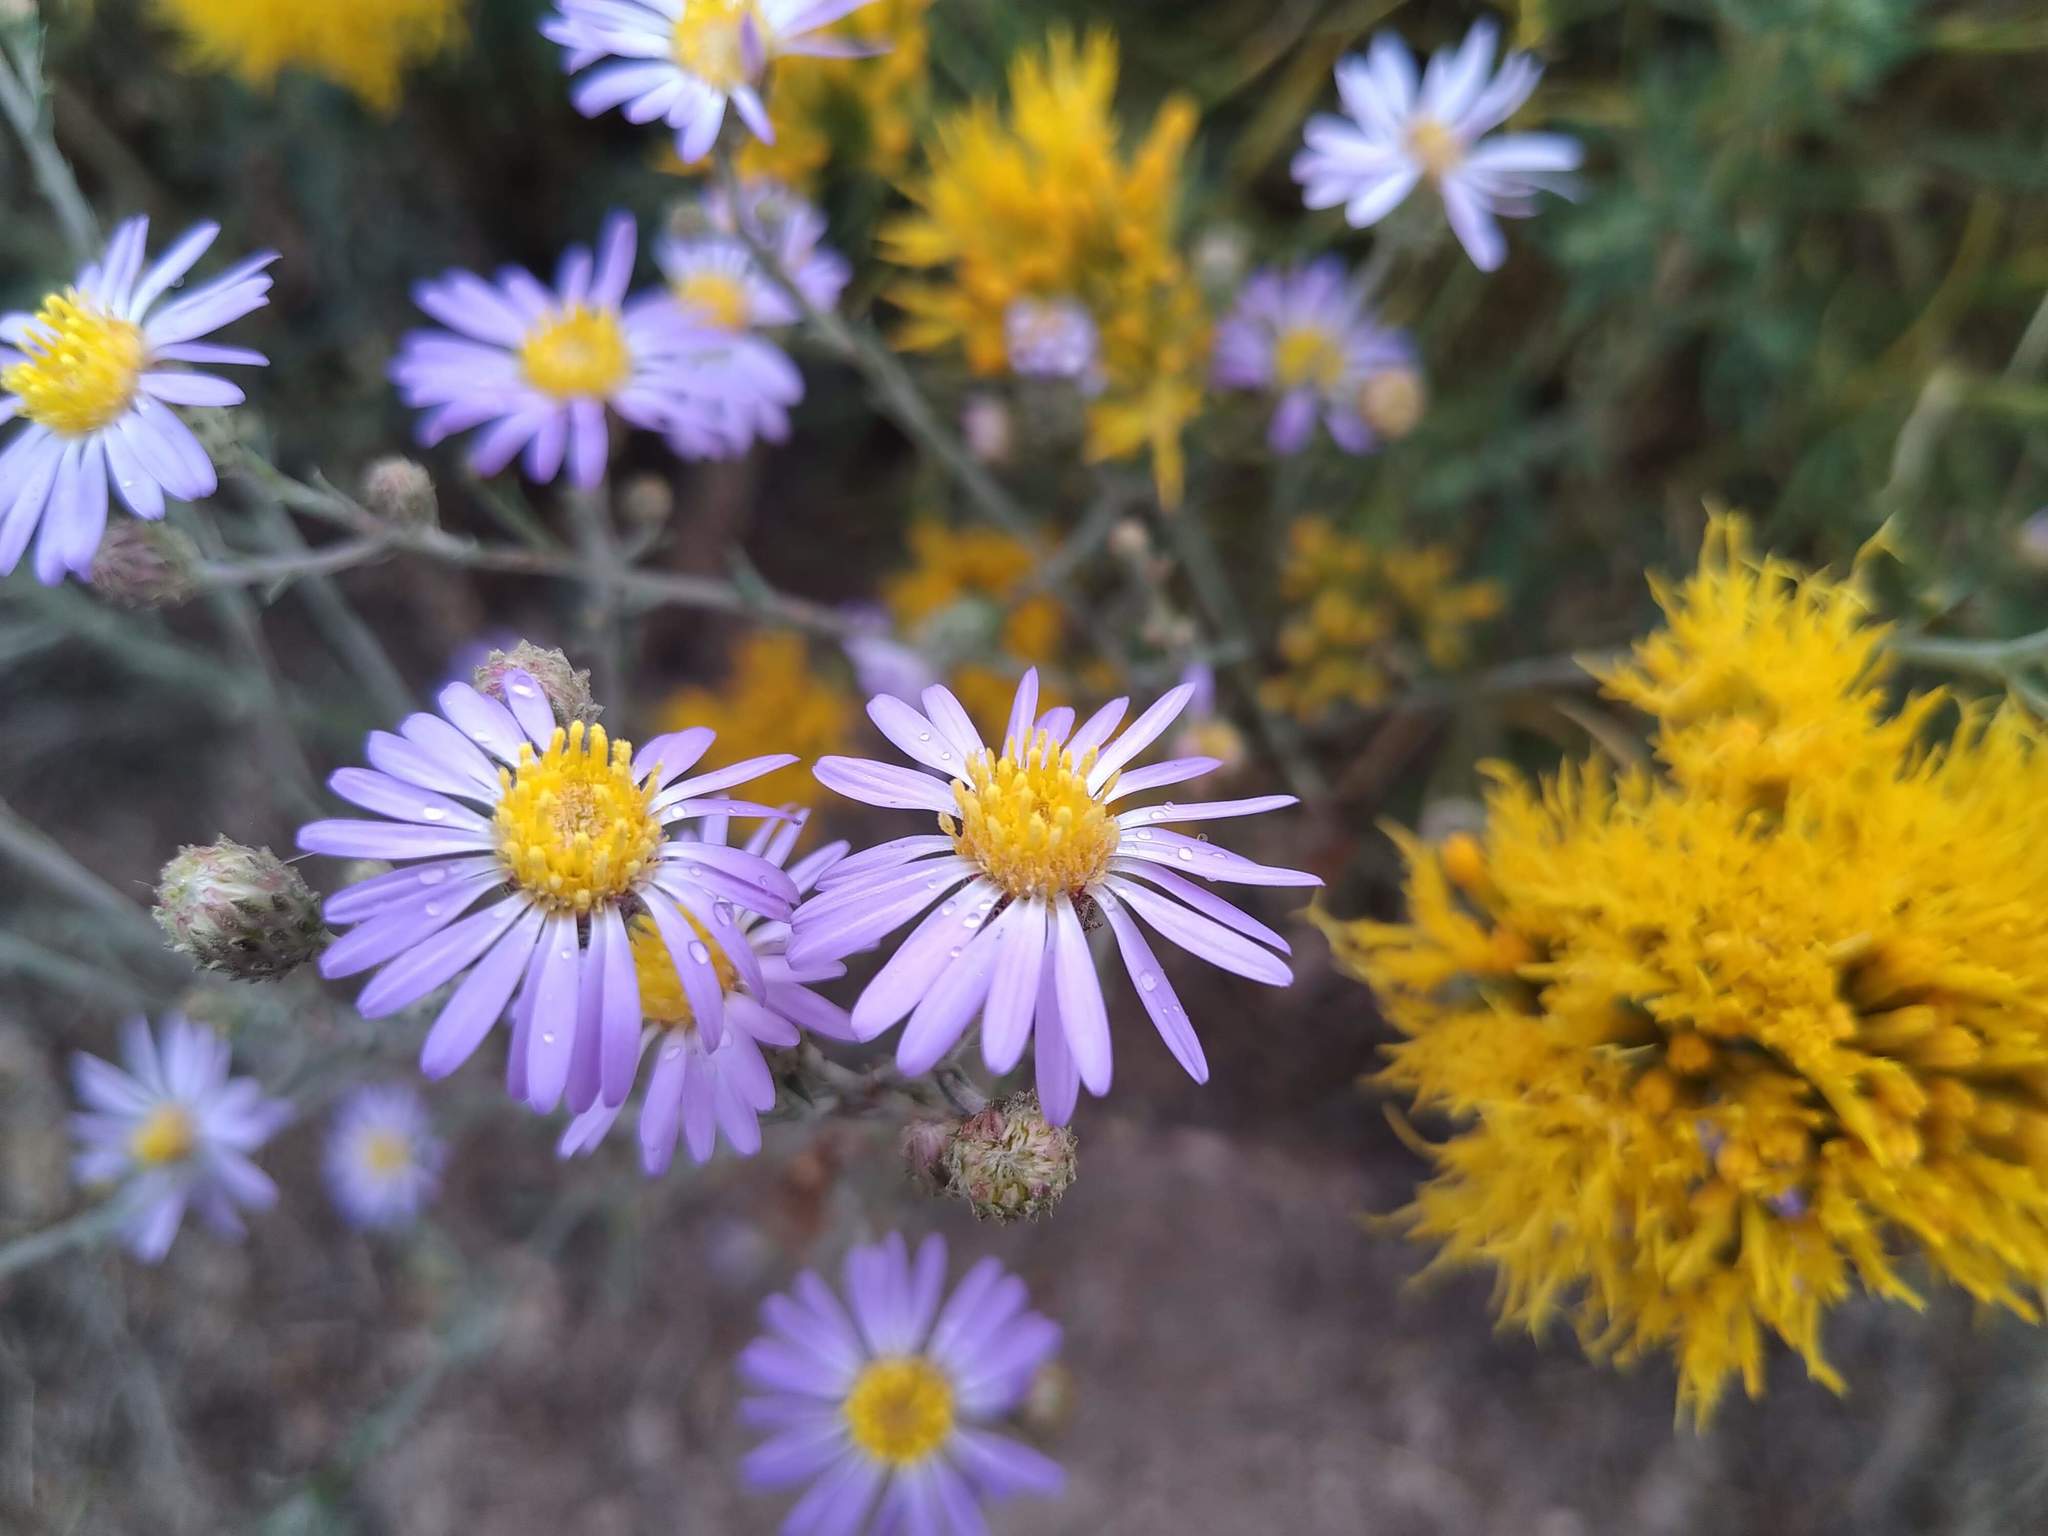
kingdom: Plantae
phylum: Tracheophyta
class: Magnoliopsida
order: Asterales
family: Asteraceae
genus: Dieteria
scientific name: Dieteria canescens
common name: Hoary-aster
